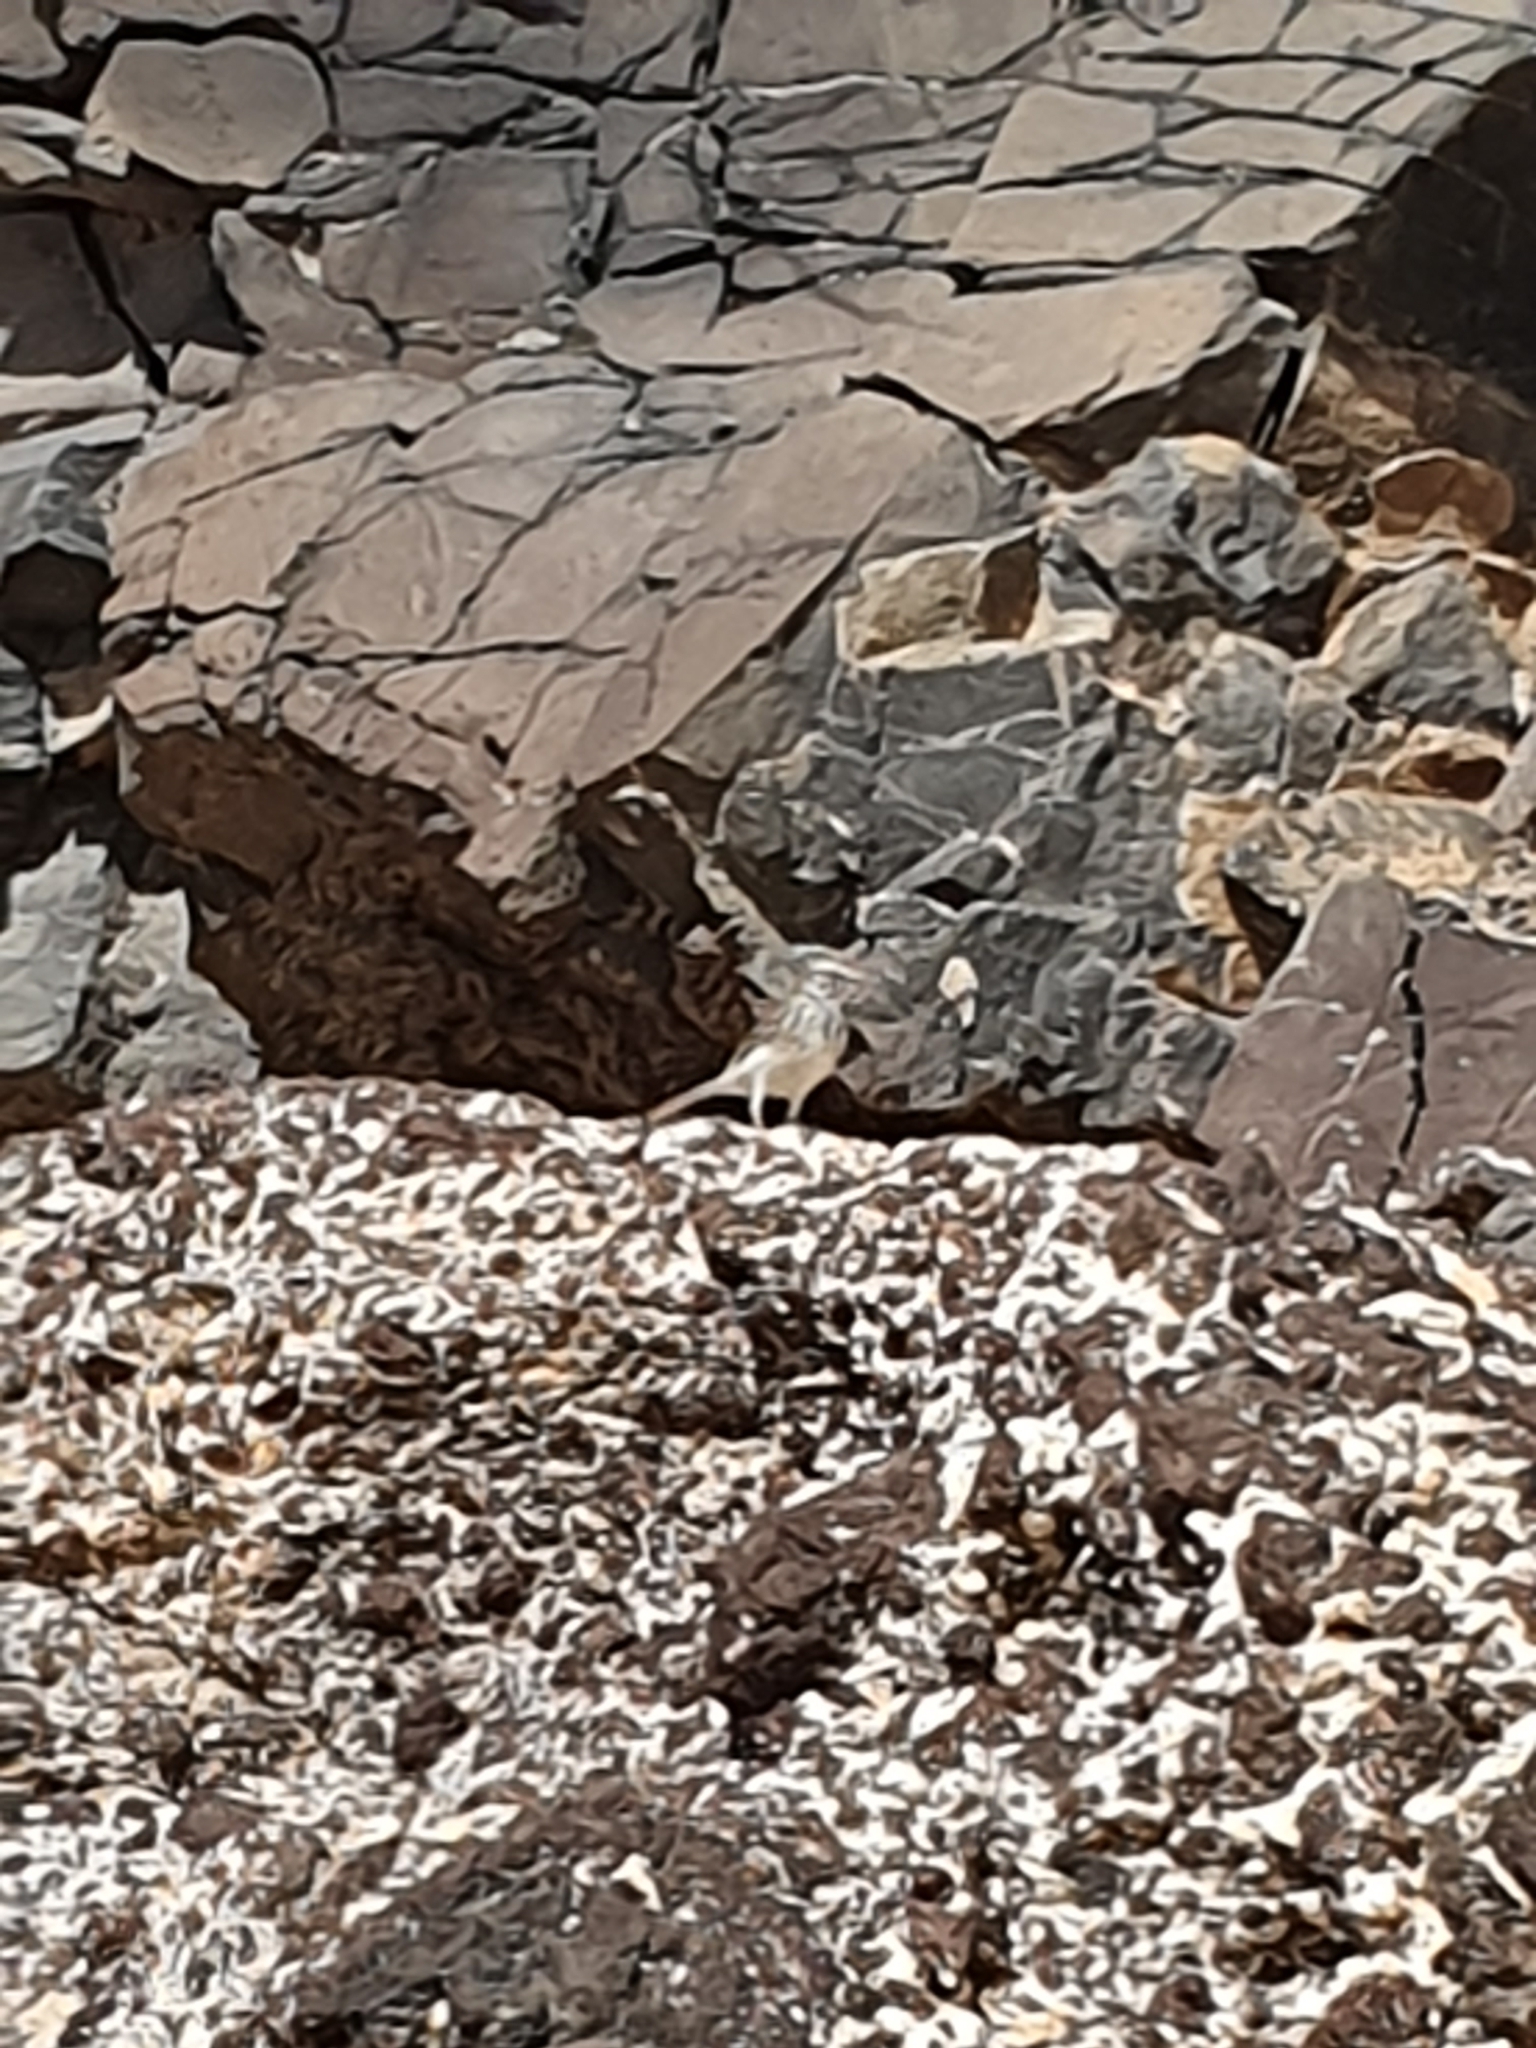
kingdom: Animalia
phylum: Chordata
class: Aves
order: Passeriformes
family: Motacillidae
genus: Anthus
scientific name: Anthus berthelotii
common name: Berthelot's pipit
